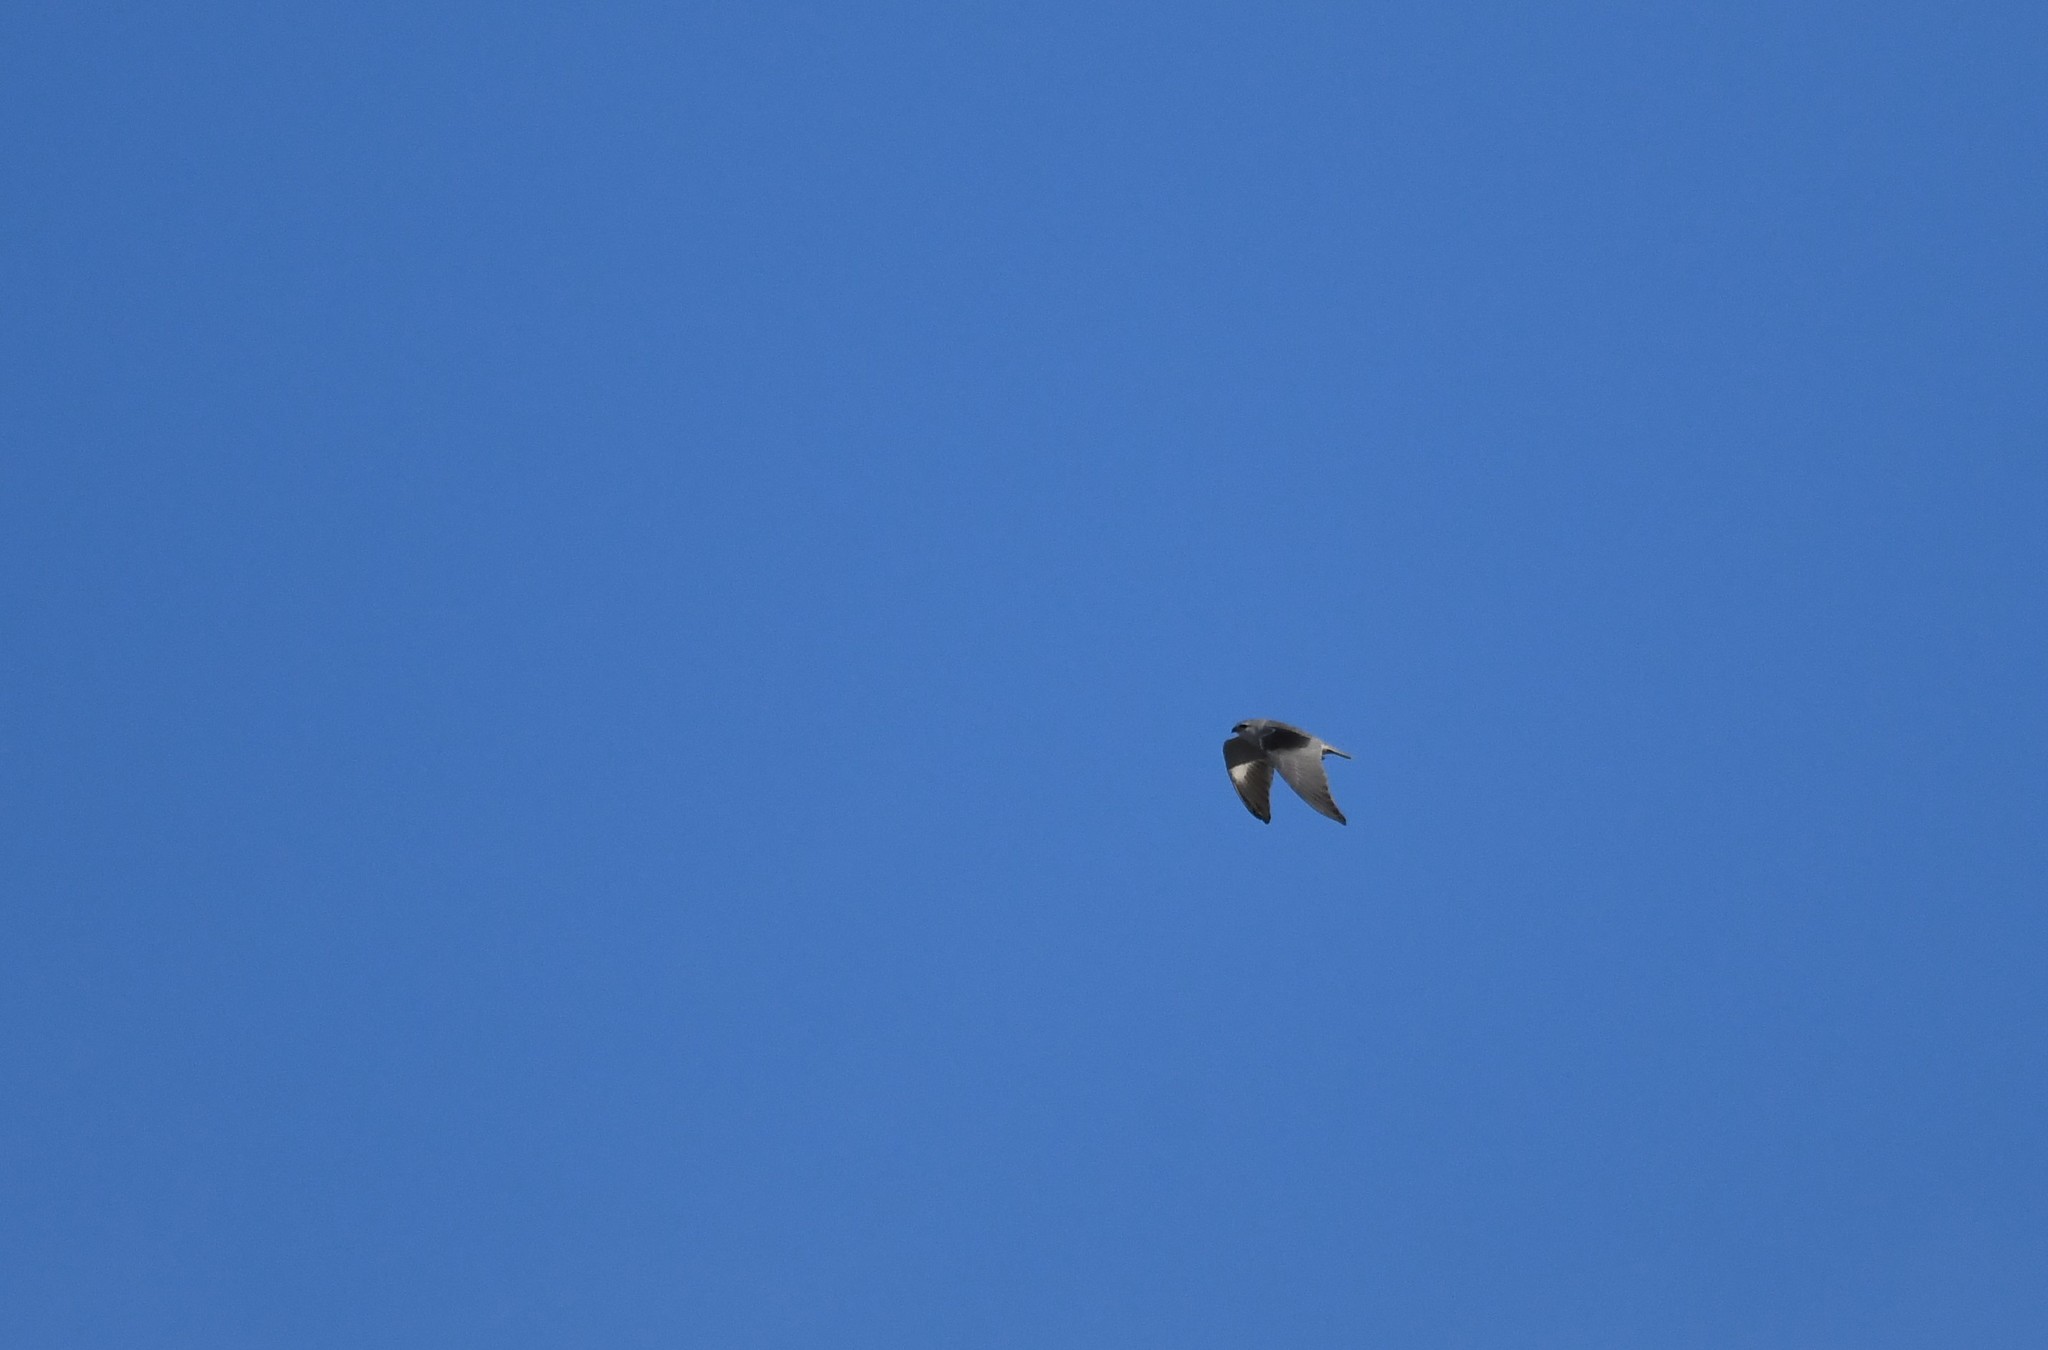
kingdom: Animalia
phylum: Chordata
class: Aves
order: Accipitriformes
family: Accipitridae
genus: Elanus
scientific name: Elanus caeruleus
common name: Black-winged kite
